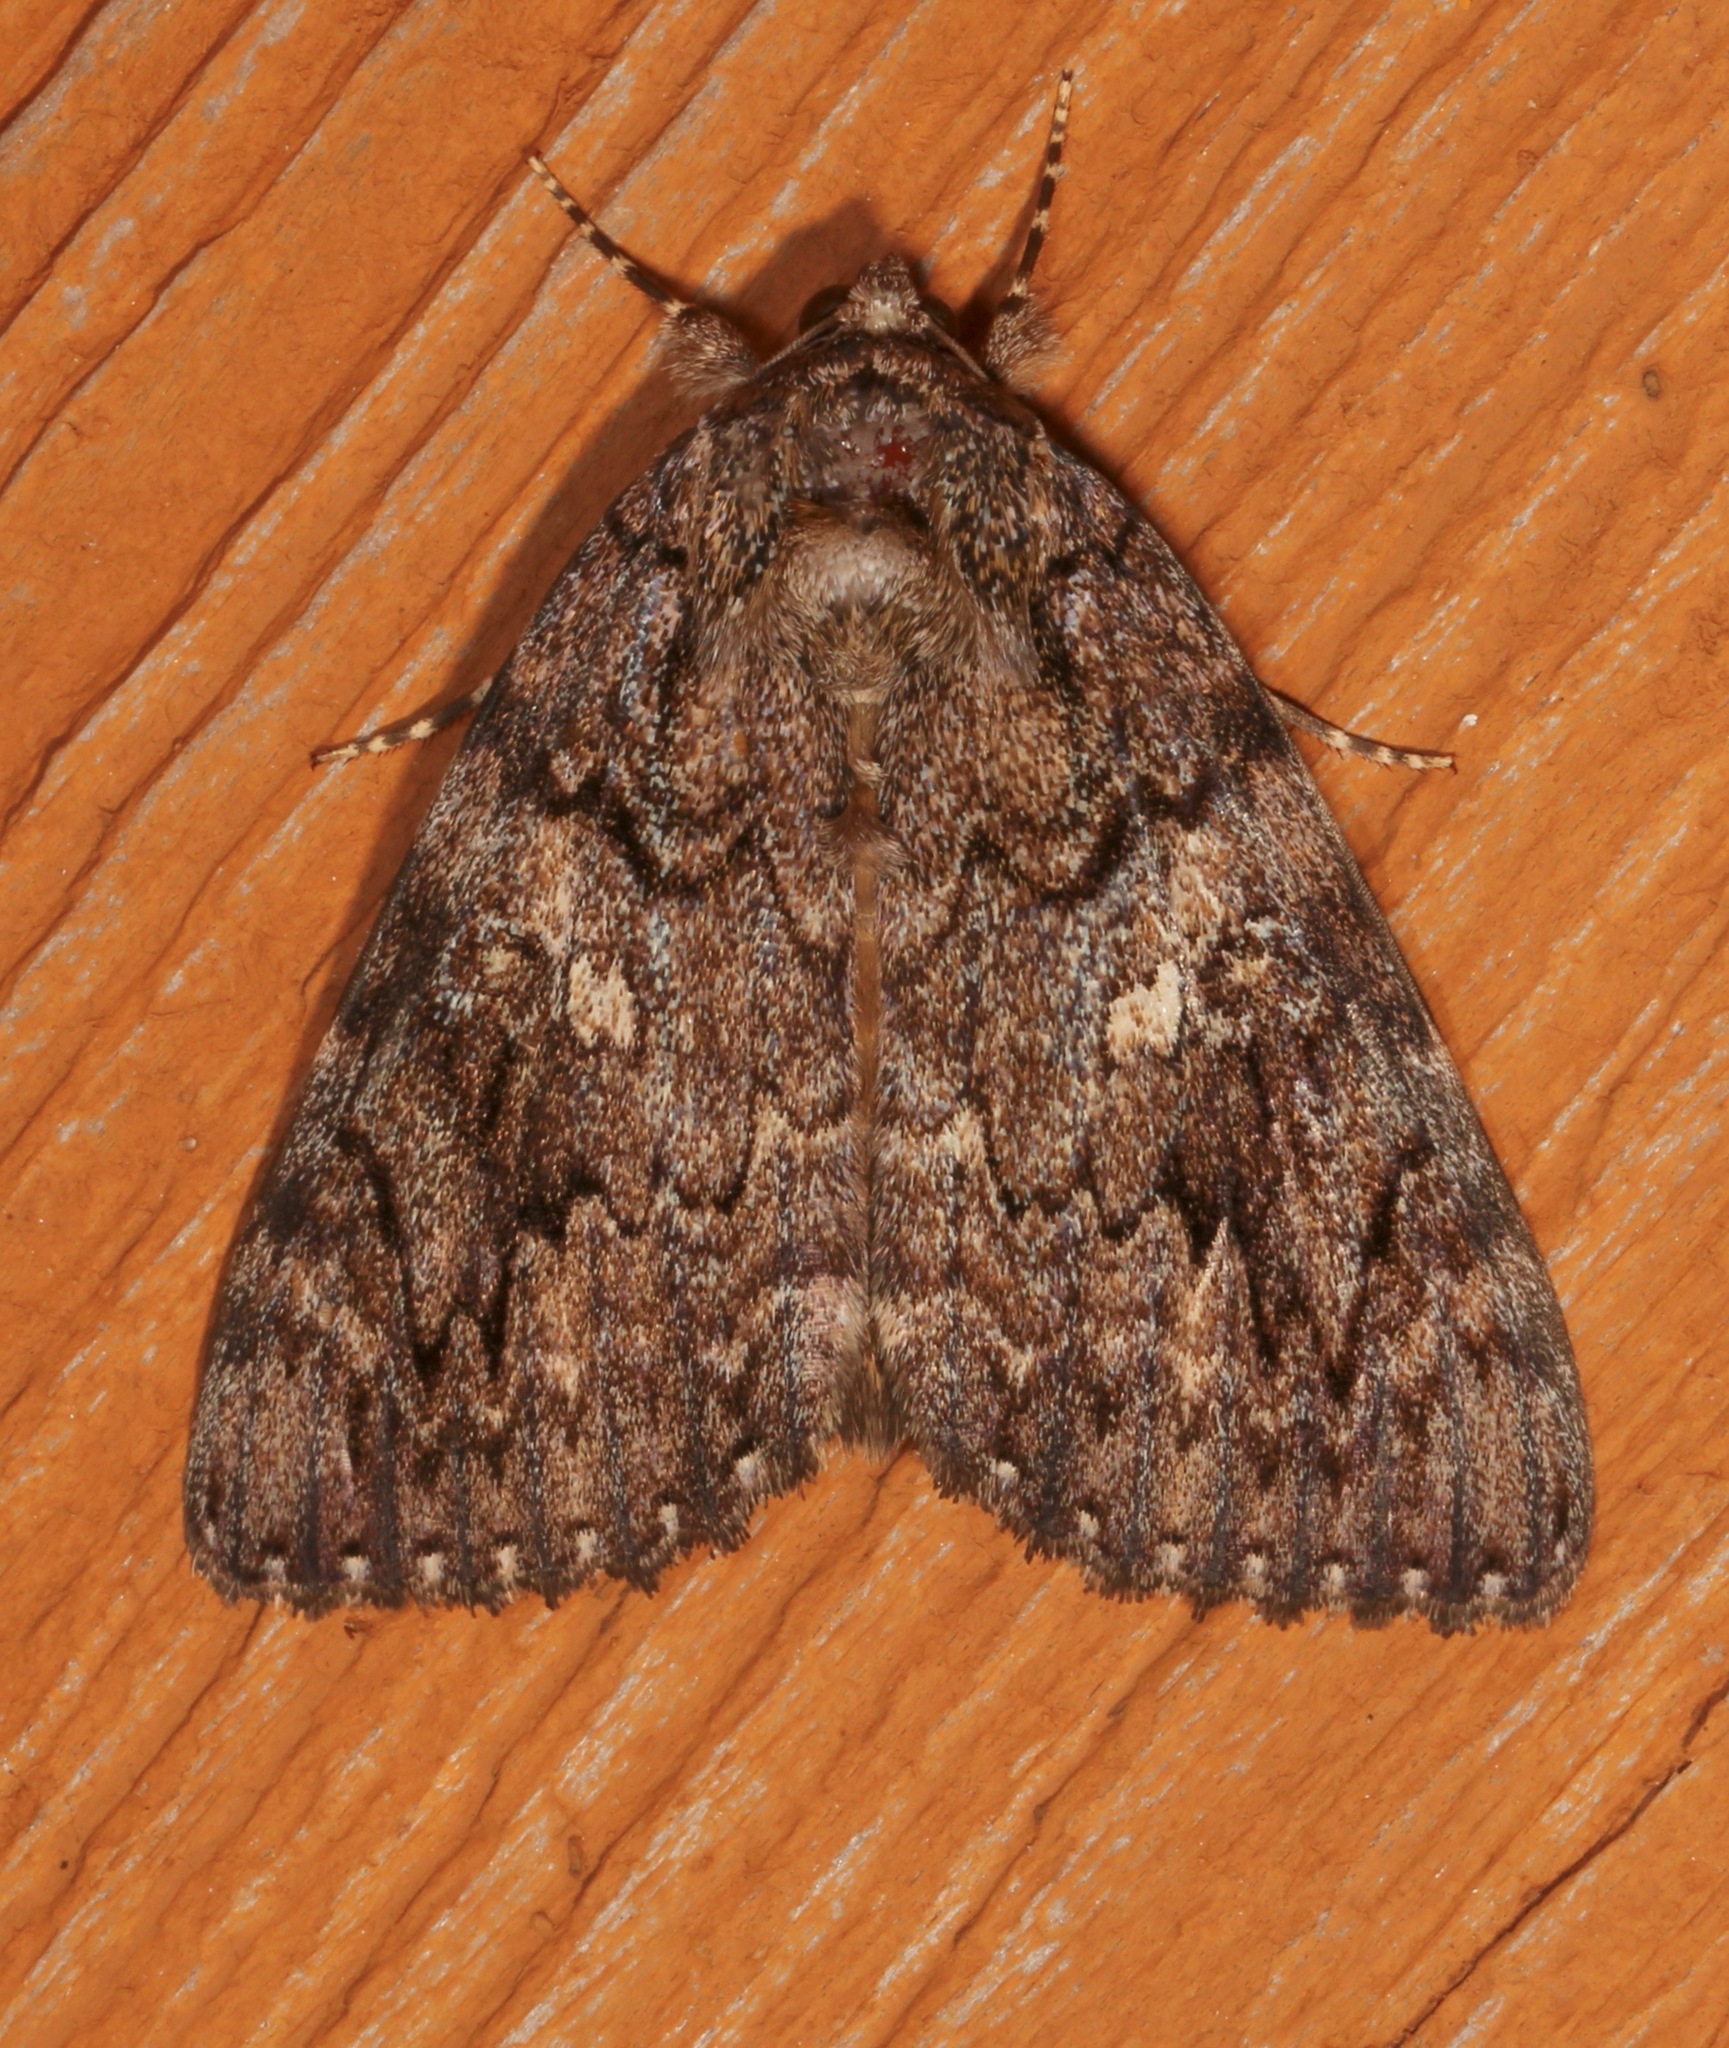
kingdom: Animalia
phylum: Arthropoda
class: Insecta
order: Lepidoptera
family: Erebidae
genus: Catocala
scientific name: Catocala umbrosa
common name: Umber underwing
